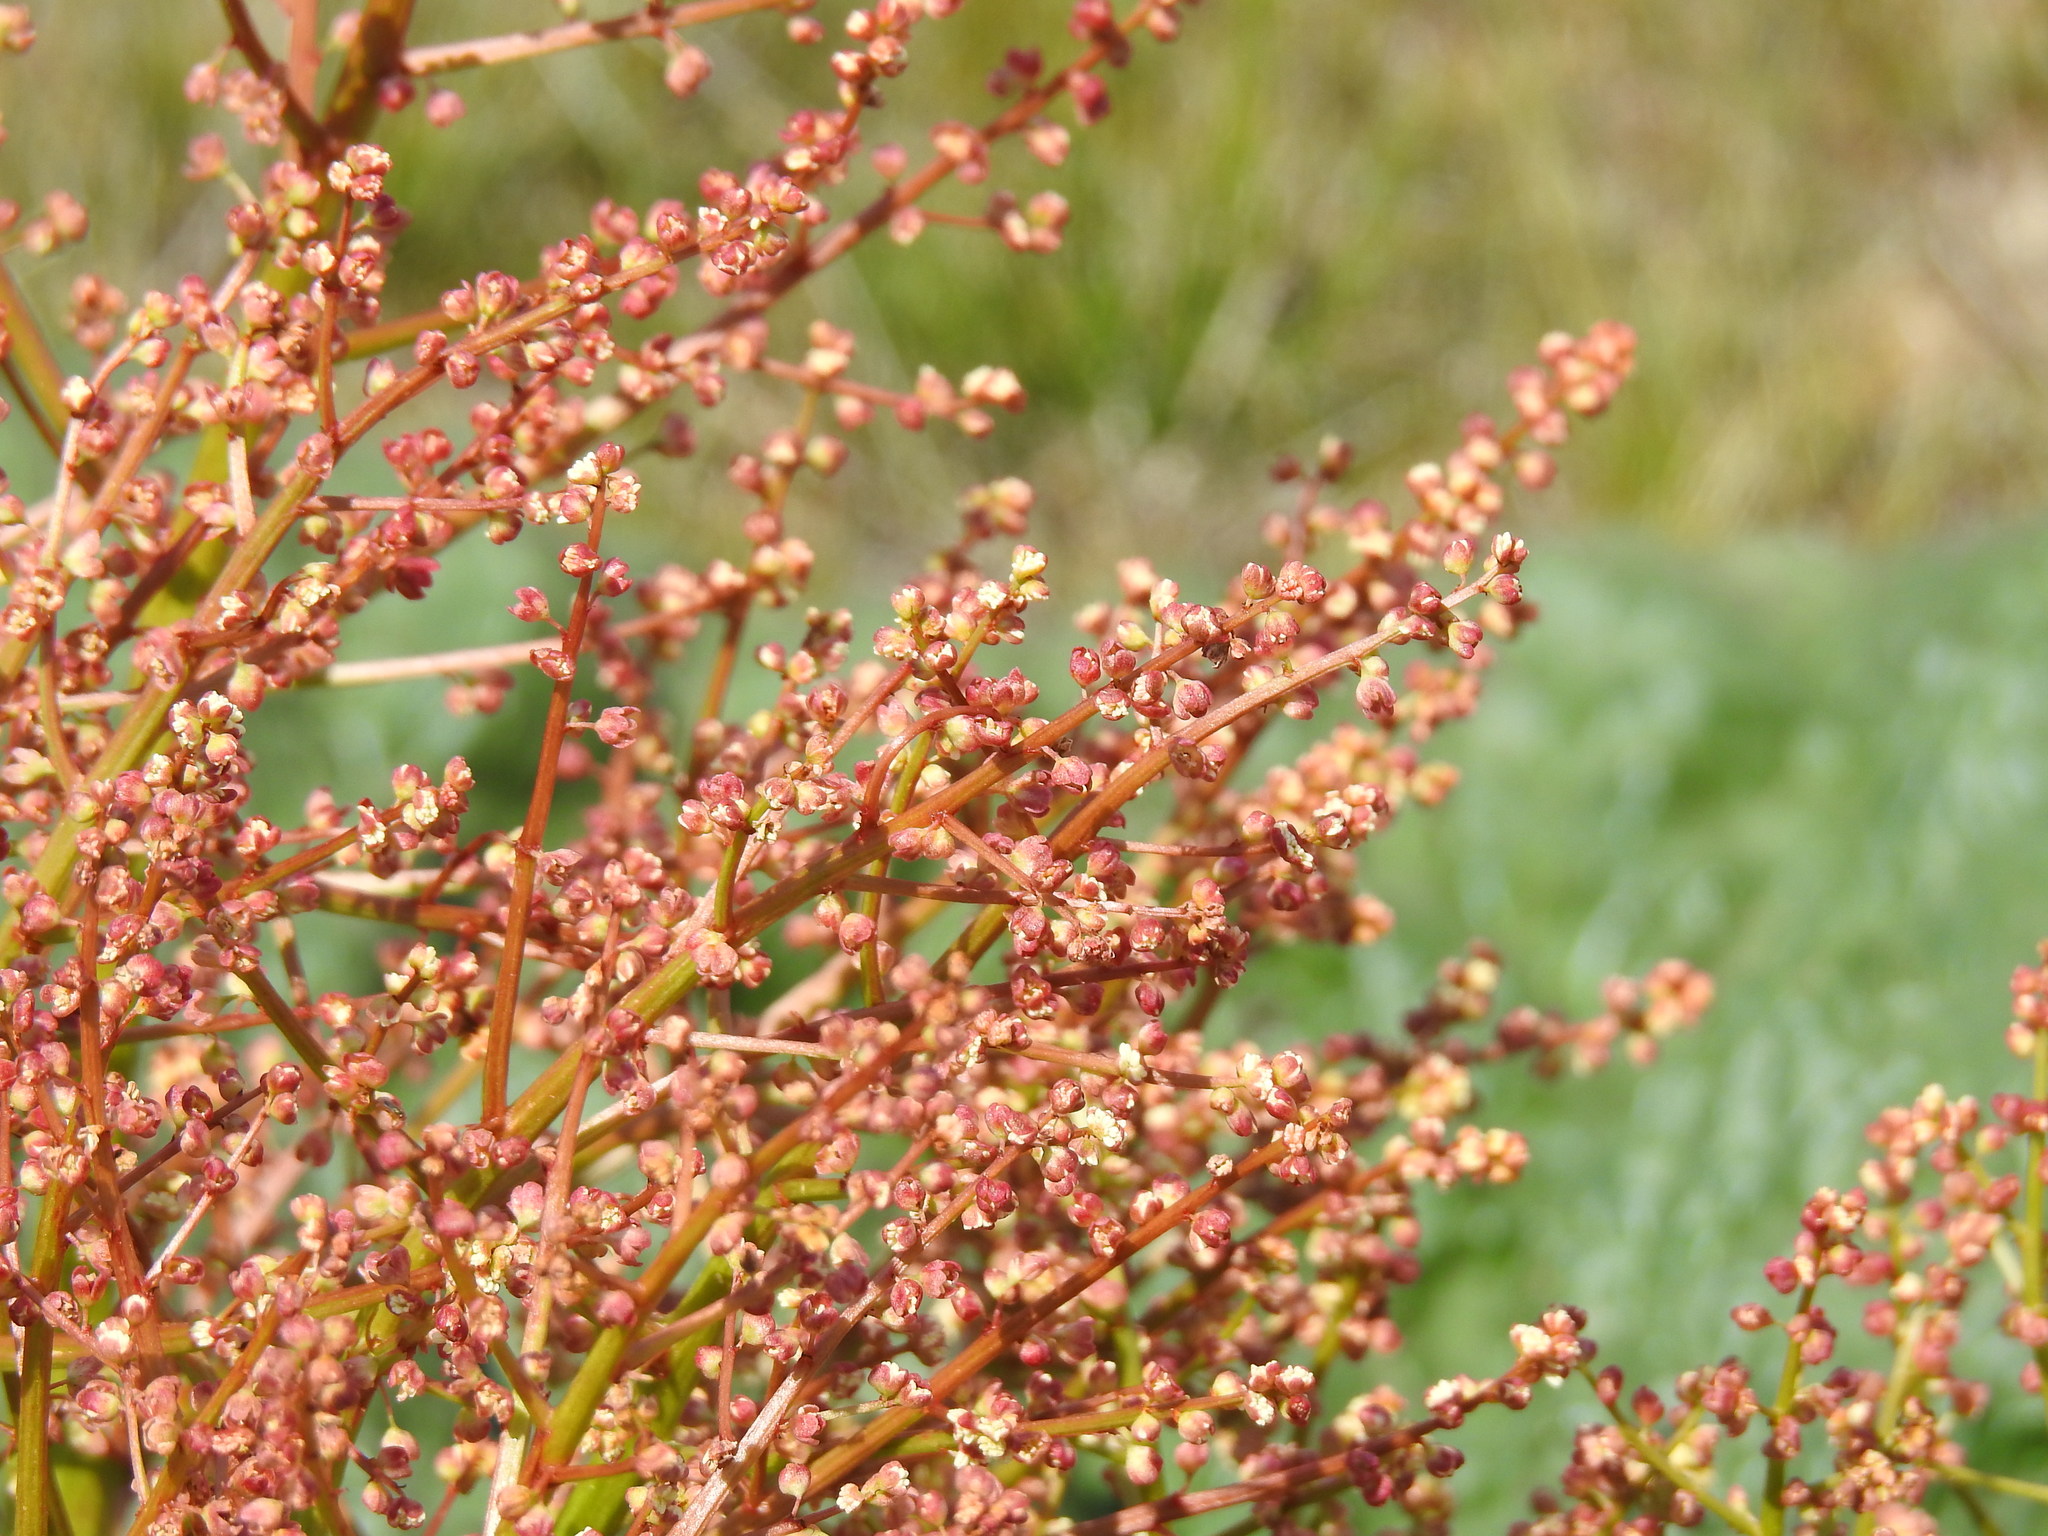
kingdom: Plantae
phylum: Tracheophyta
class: Magnoliopsida
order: Caryophyllales
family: Polygonaceae
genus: Rheum
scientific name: Rheum tataricum
